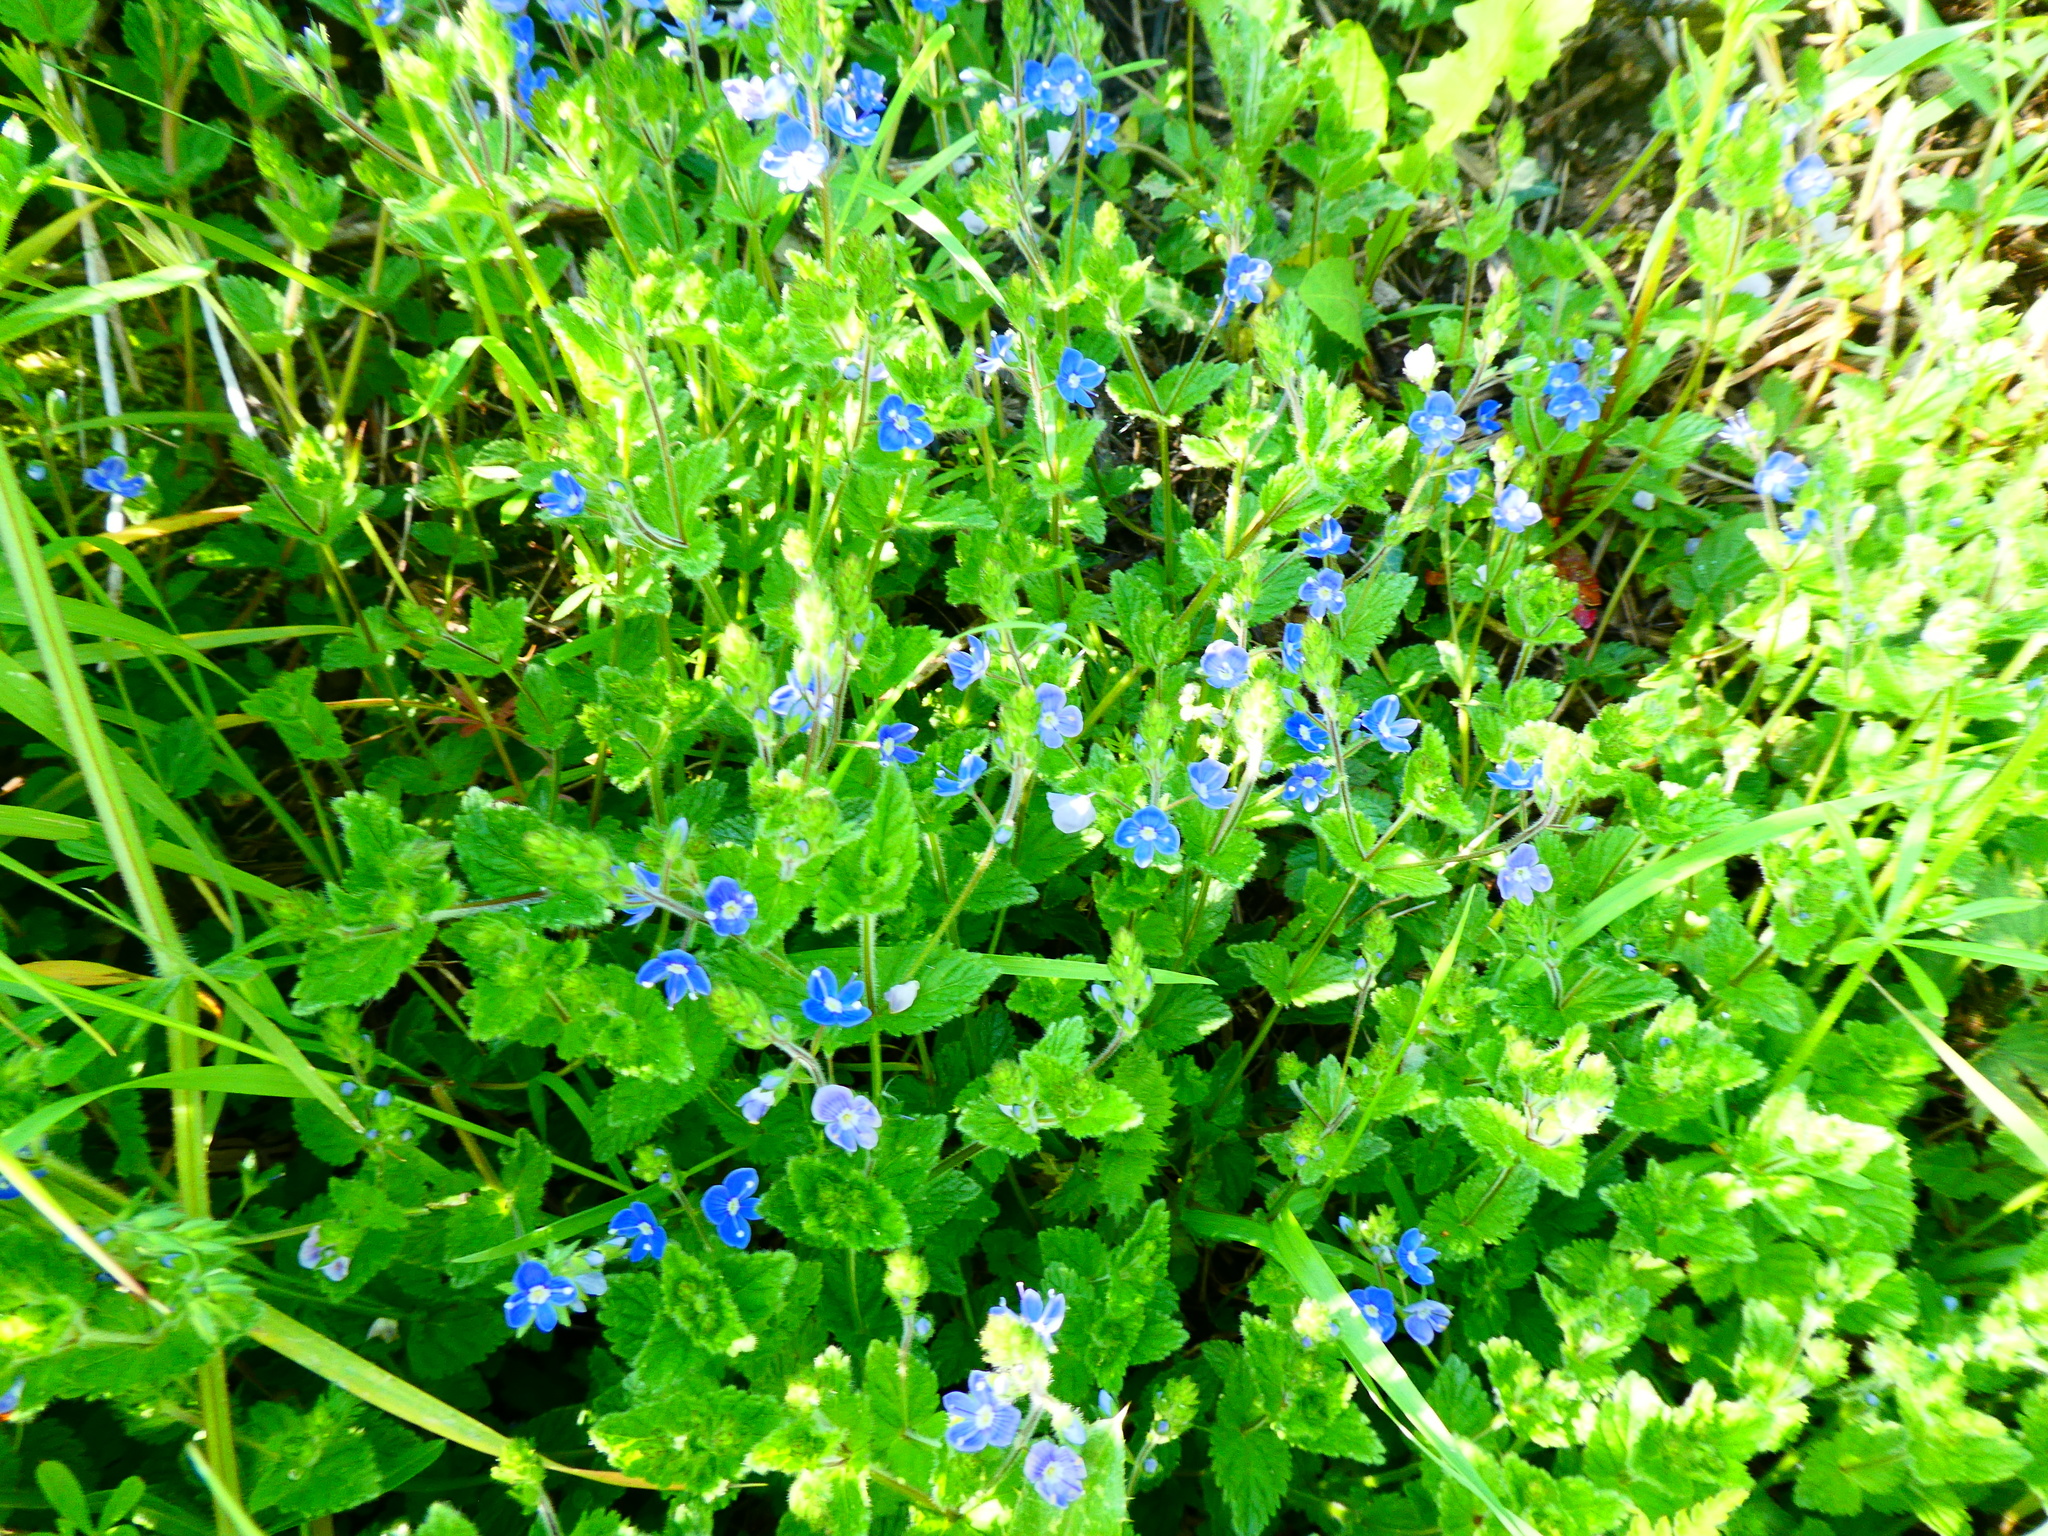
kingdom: Plantae
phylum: Tracheophyta
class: Magnoliopsida
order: Lamiales
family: Plantaginaceae
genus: Veronica
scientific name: Veronica chamaedrys
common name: Germander speedwell
